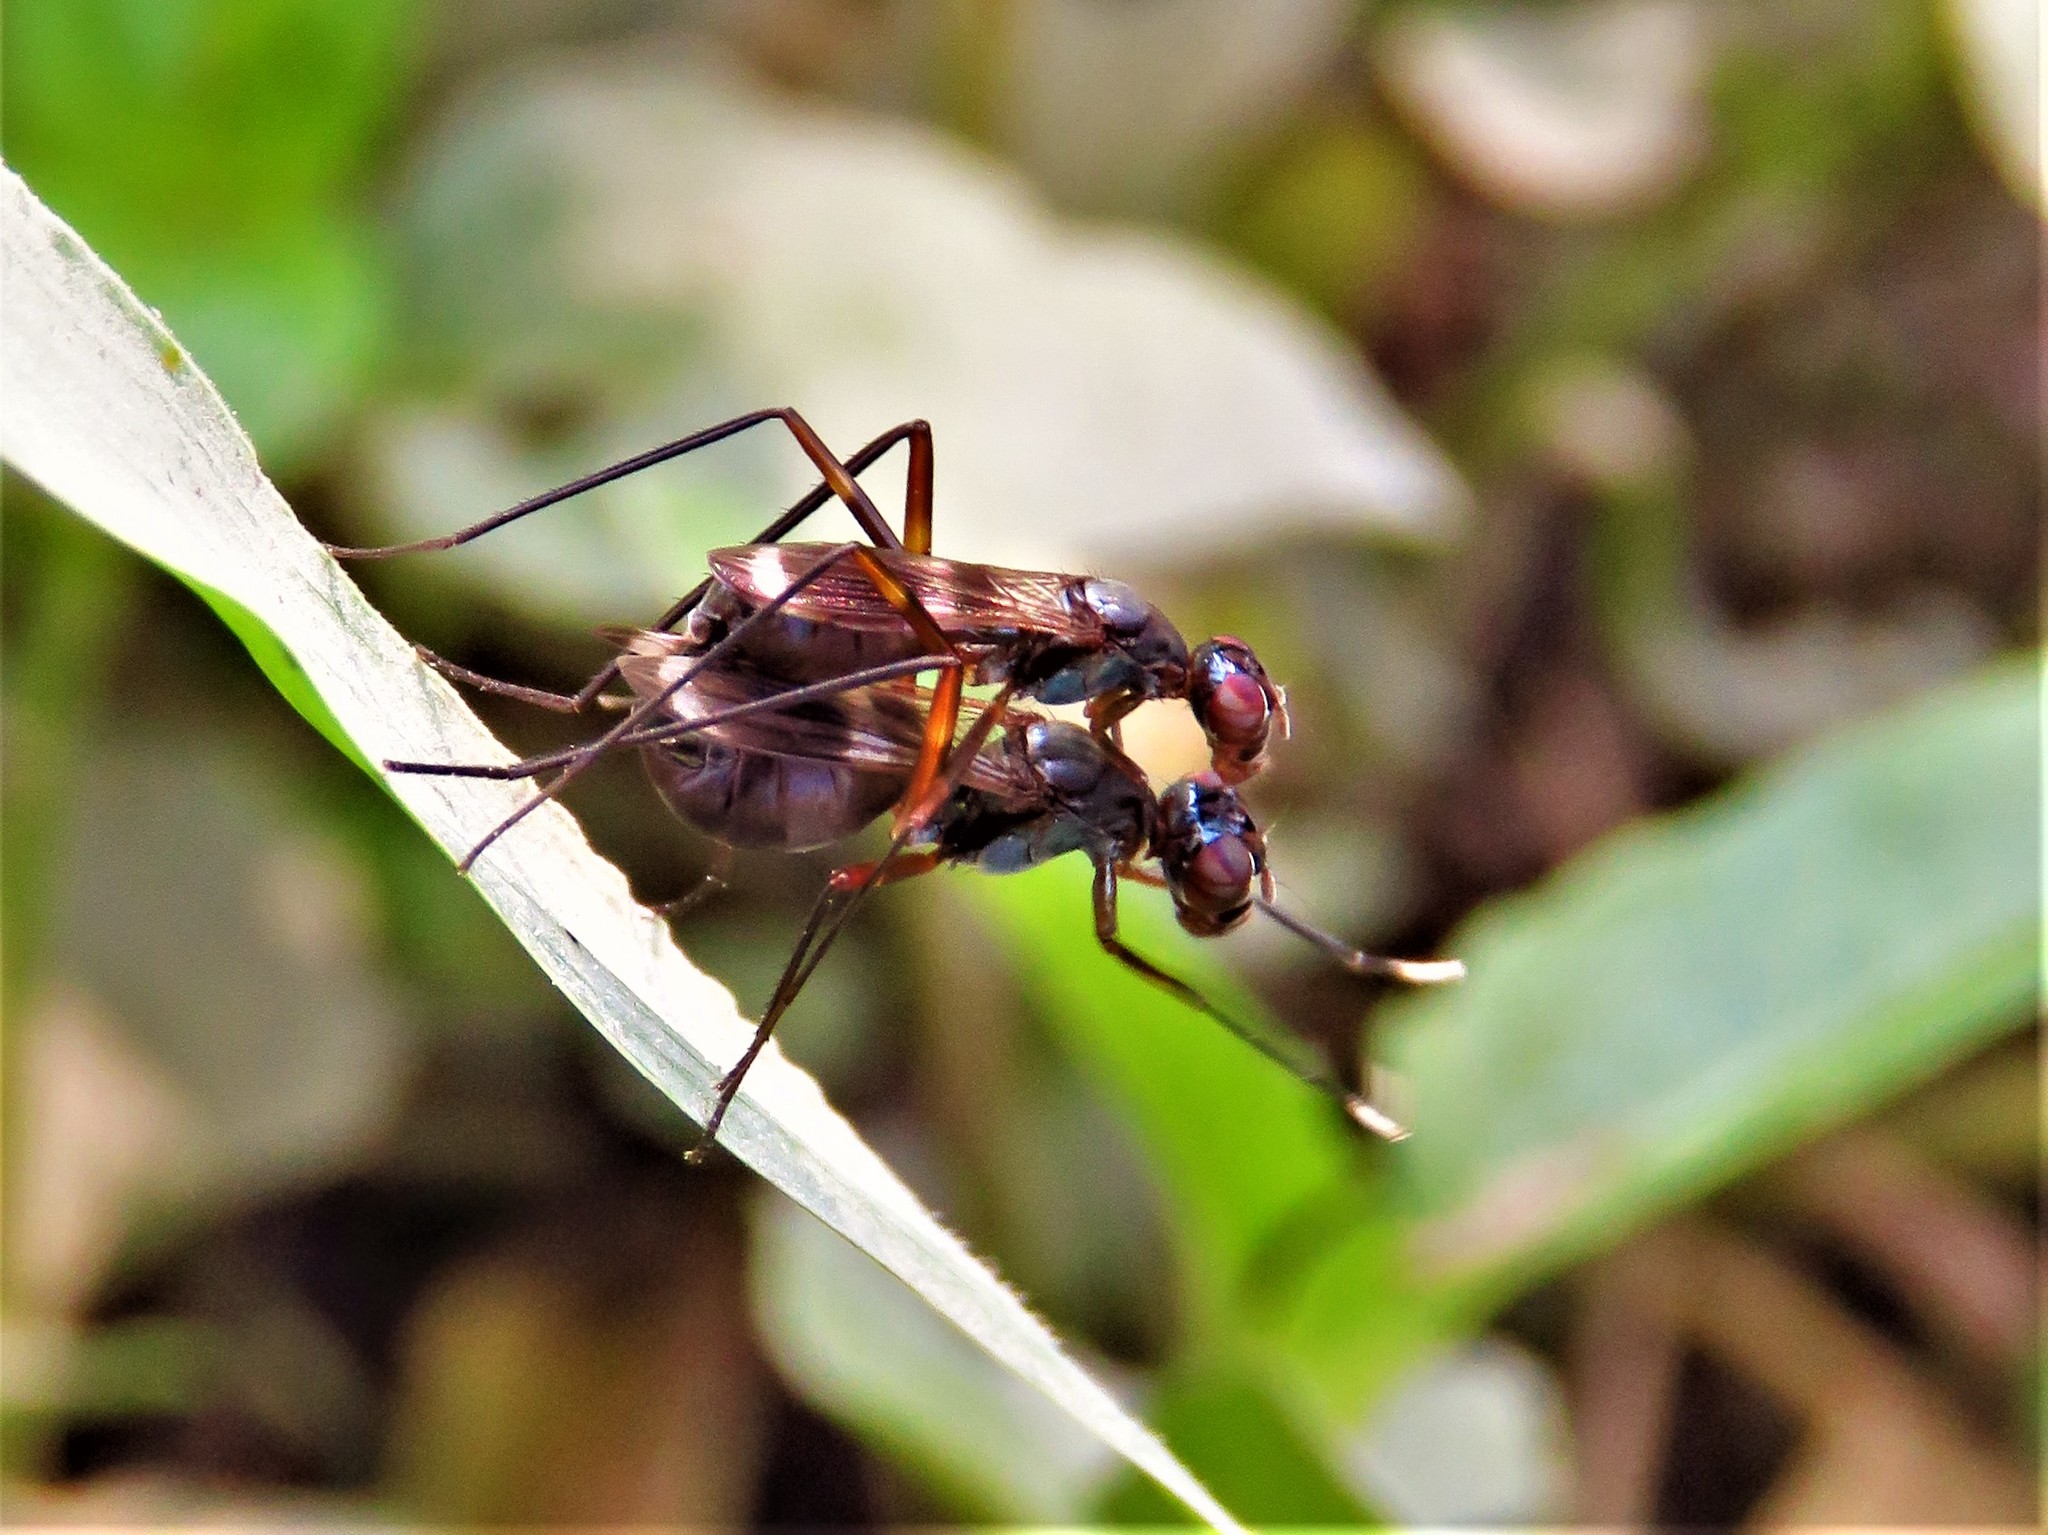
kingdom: Animalia
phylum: Arthropoda
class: Insecta
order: Diptera
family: Micropezidae
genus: Taeniaptera
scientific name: Taeniaptera trivittata
